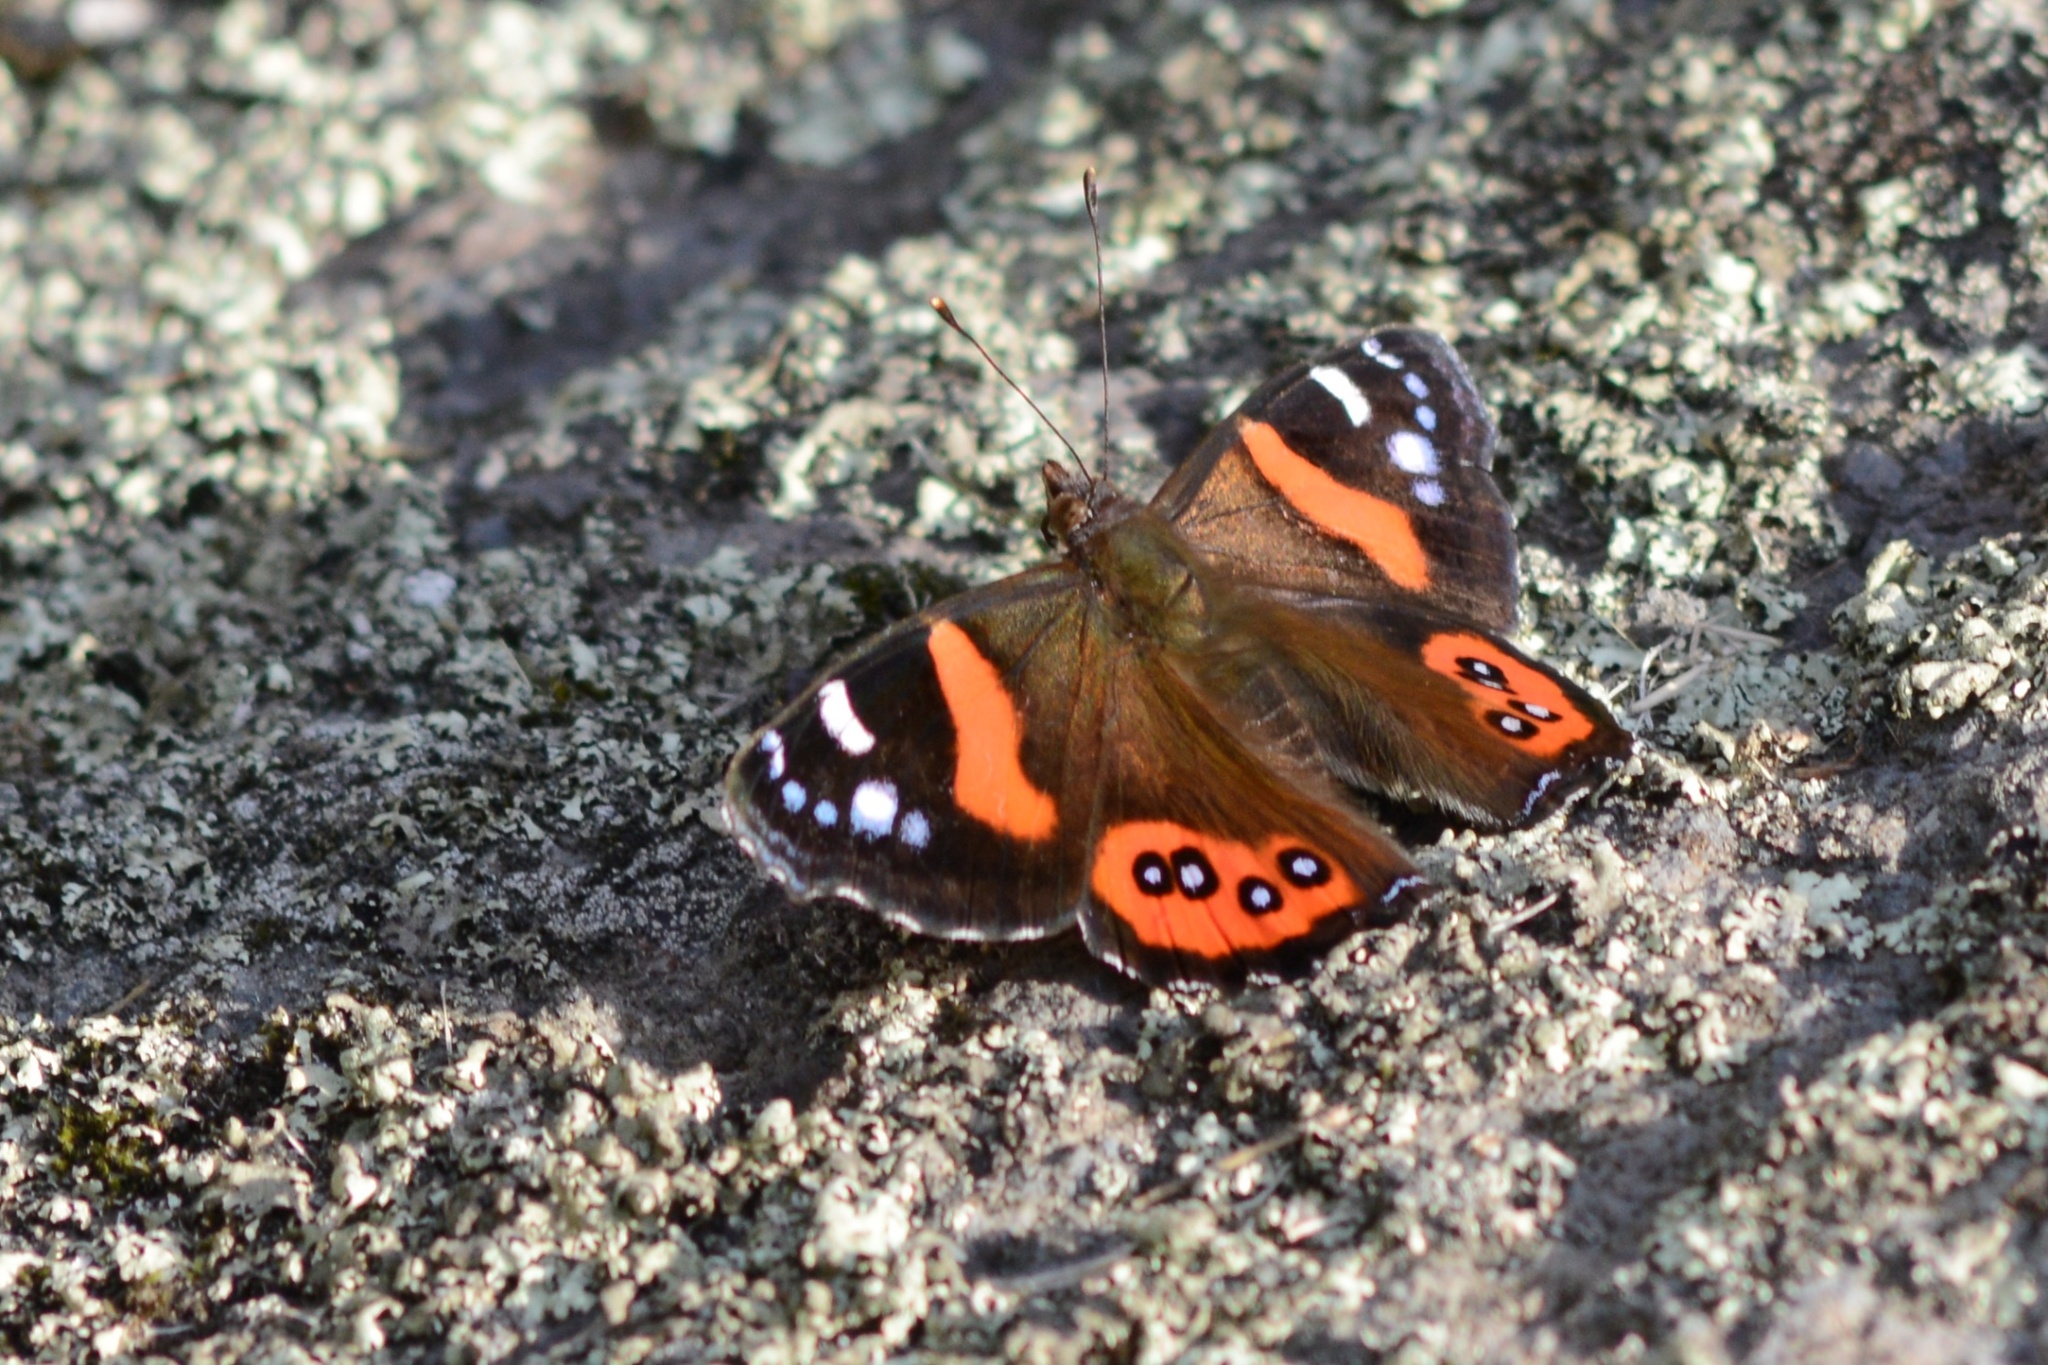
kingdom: Animalia
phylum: Arthropoda
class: Insecta
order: Lepidoptera
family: Nymphalidae
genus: Vanessa
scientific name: Vanessa gonerilla
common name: New zealand red admiral
